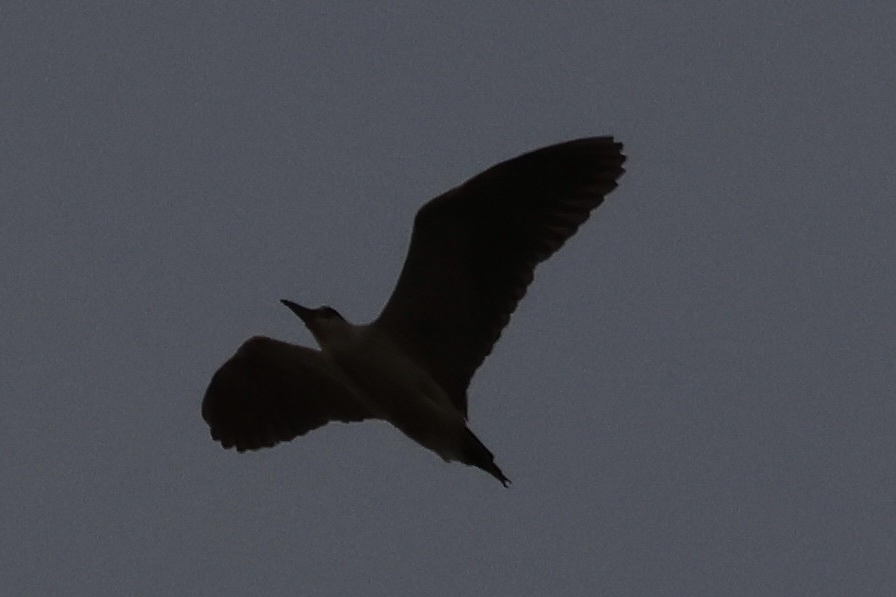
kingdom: Animalia
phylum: Chordata
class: Aves
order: Pelecaniformes
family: Ardeidae
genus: Nycticorax
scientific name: Nycticorax nycticorax
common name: Black-crowned night heron
